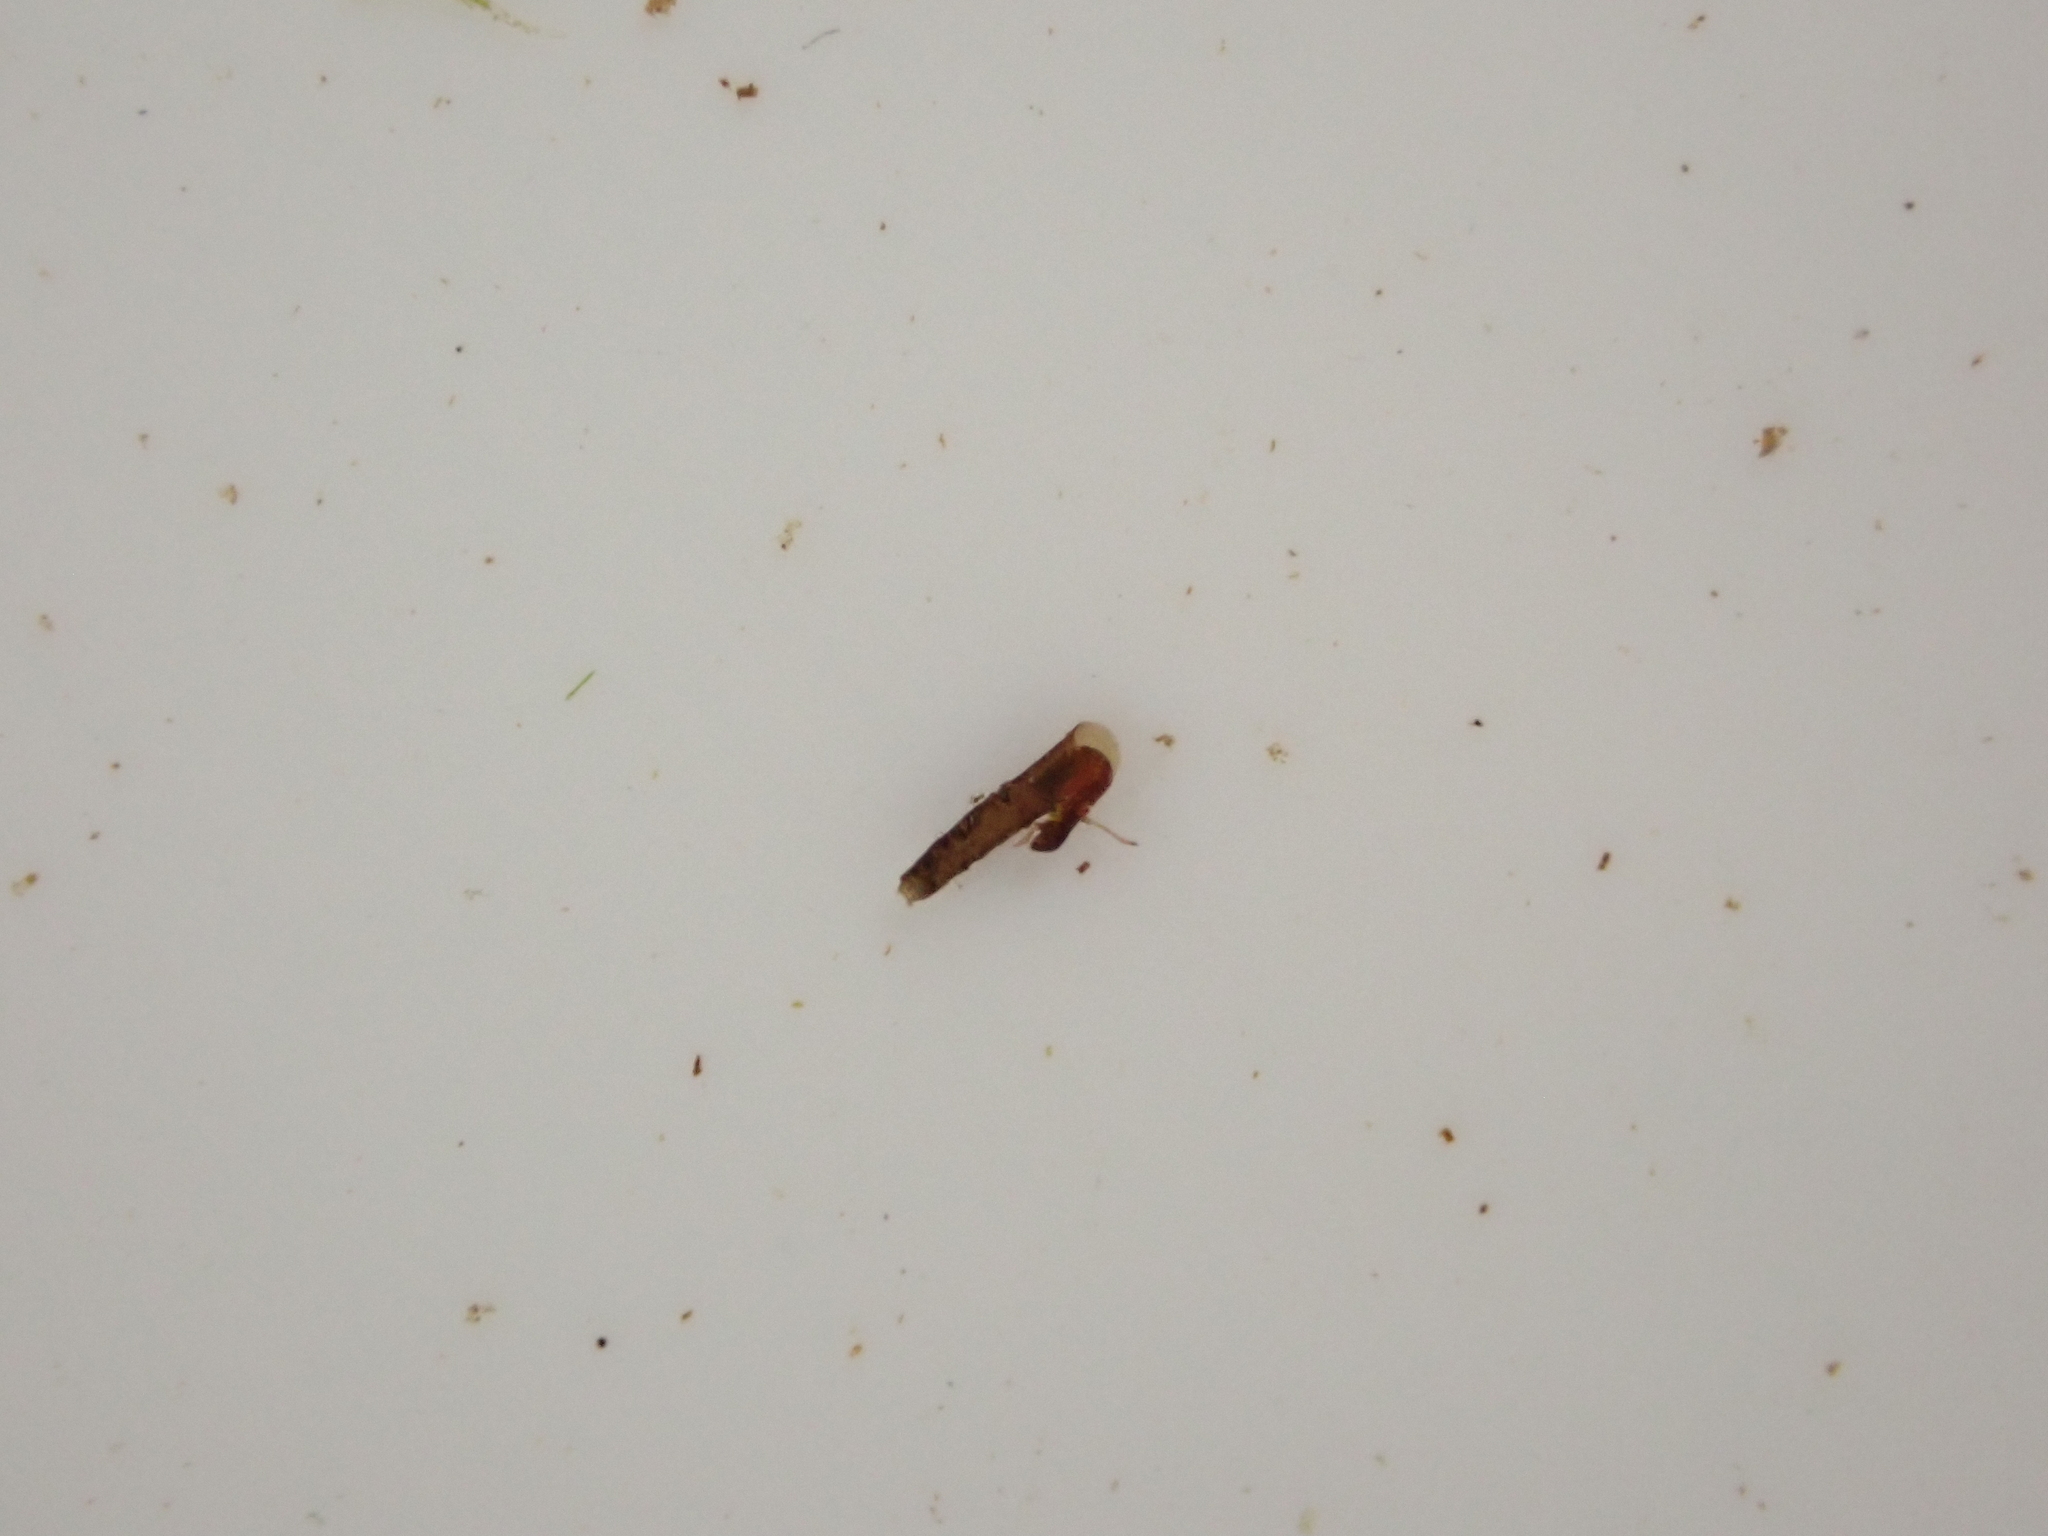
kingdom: Animalia
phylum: Arthropoda
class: Insecta
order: Trichoptera
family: Conoesucidae
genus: Beraeoptera
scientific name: Beraeoptera roria
